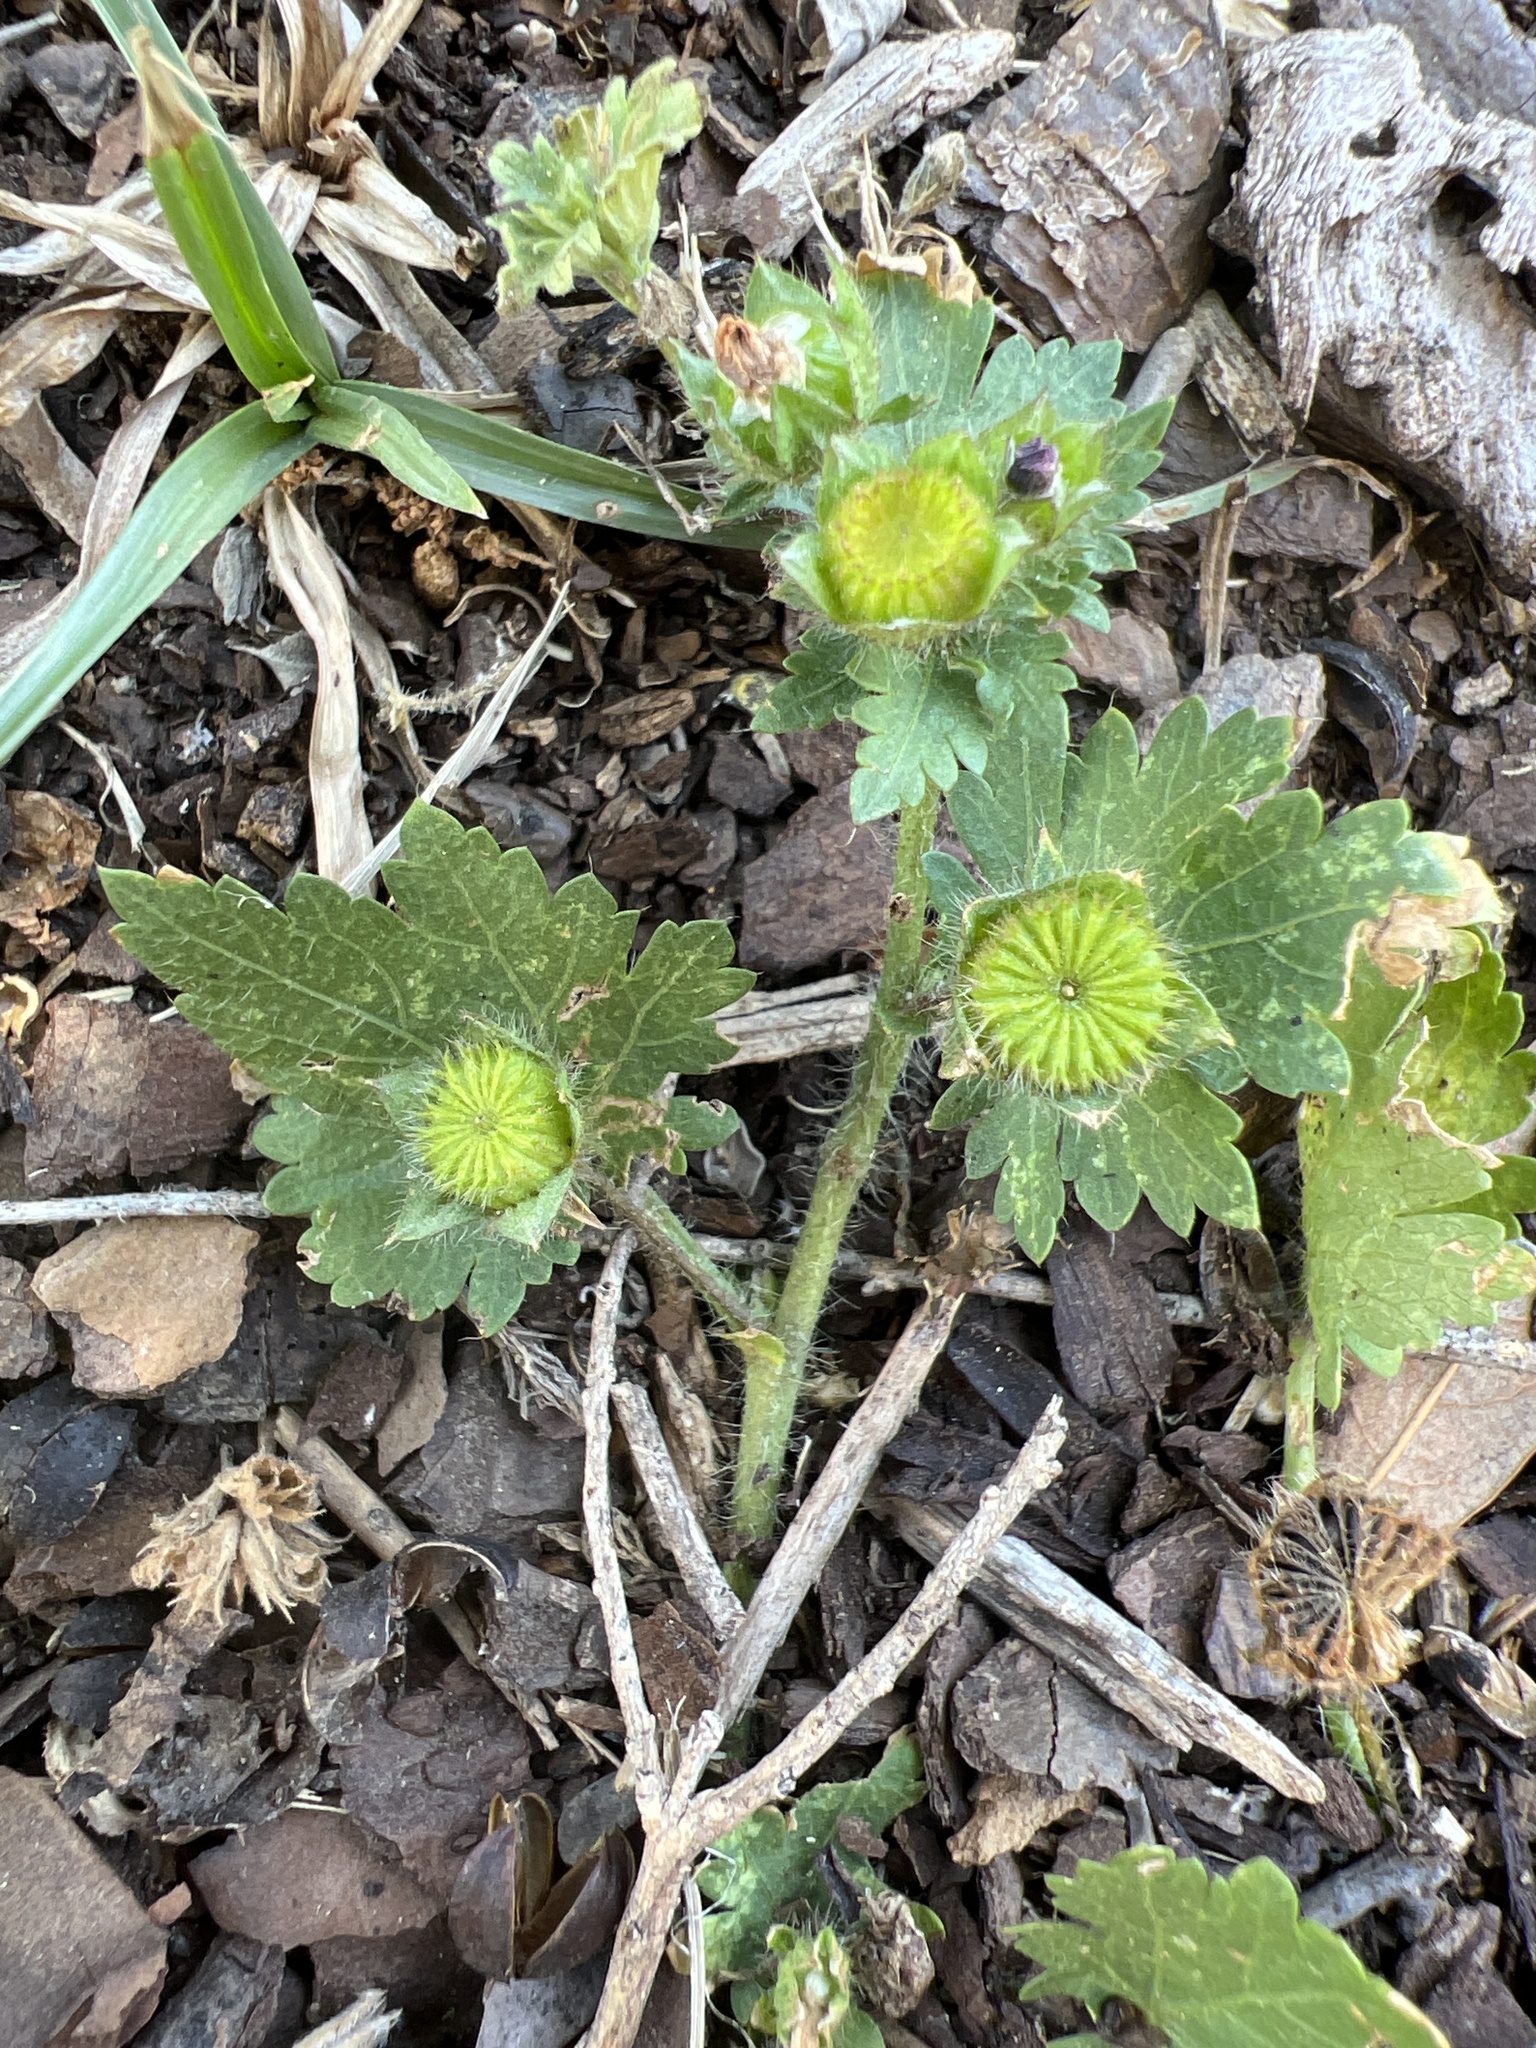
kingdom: Plantae
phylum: Tracheophyta
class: Magnoliopsida
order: Malvales
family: Malvaceae
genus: Modiola
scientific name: Modiola caroliniana
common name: Carolina bristlemallow
